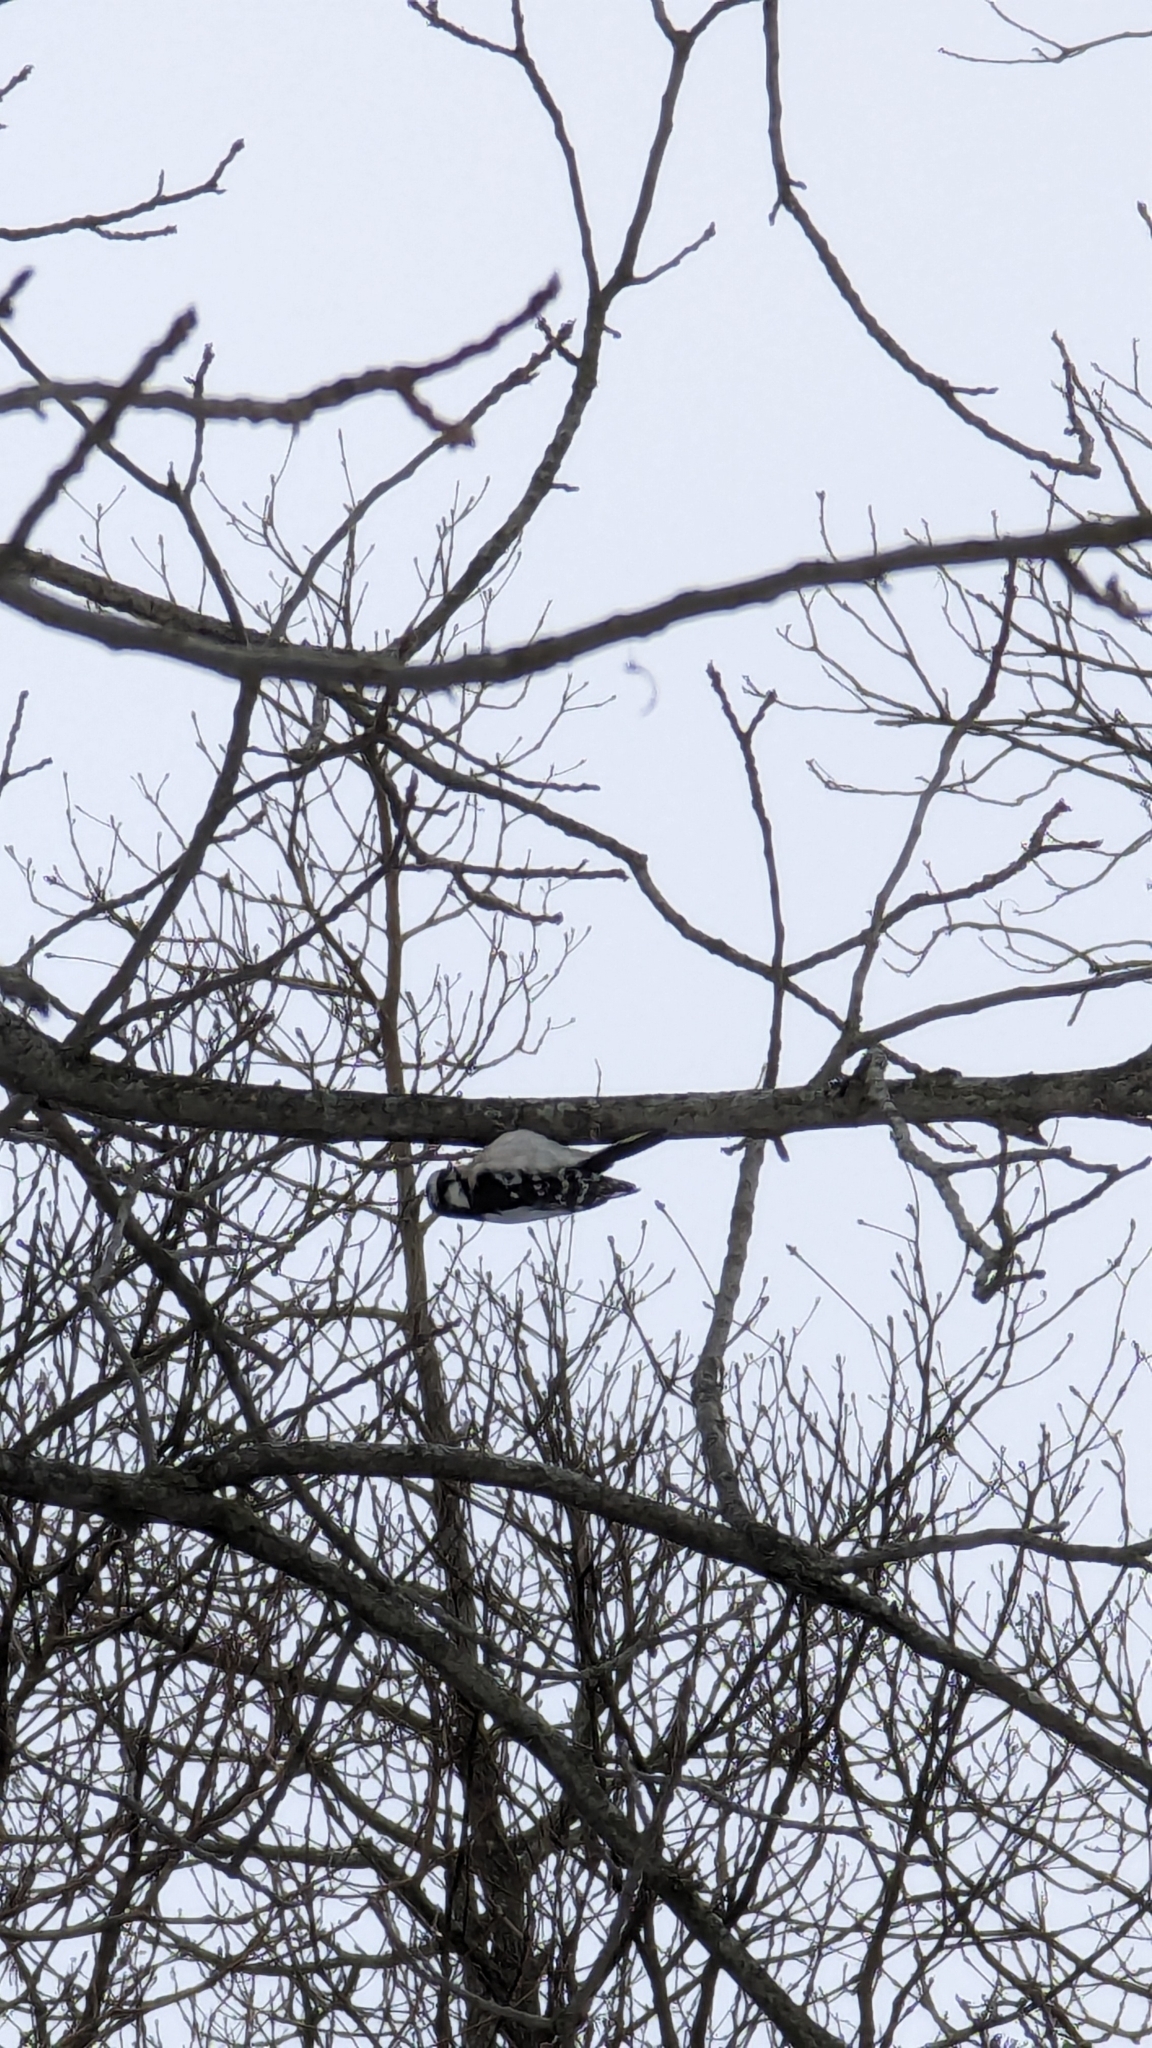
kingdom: Animalia
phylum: Chordata
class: Aves
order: Piciformes
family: Picidae
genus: Dryobates
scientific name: Dryobates pubescens
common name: Downy woodpecker
